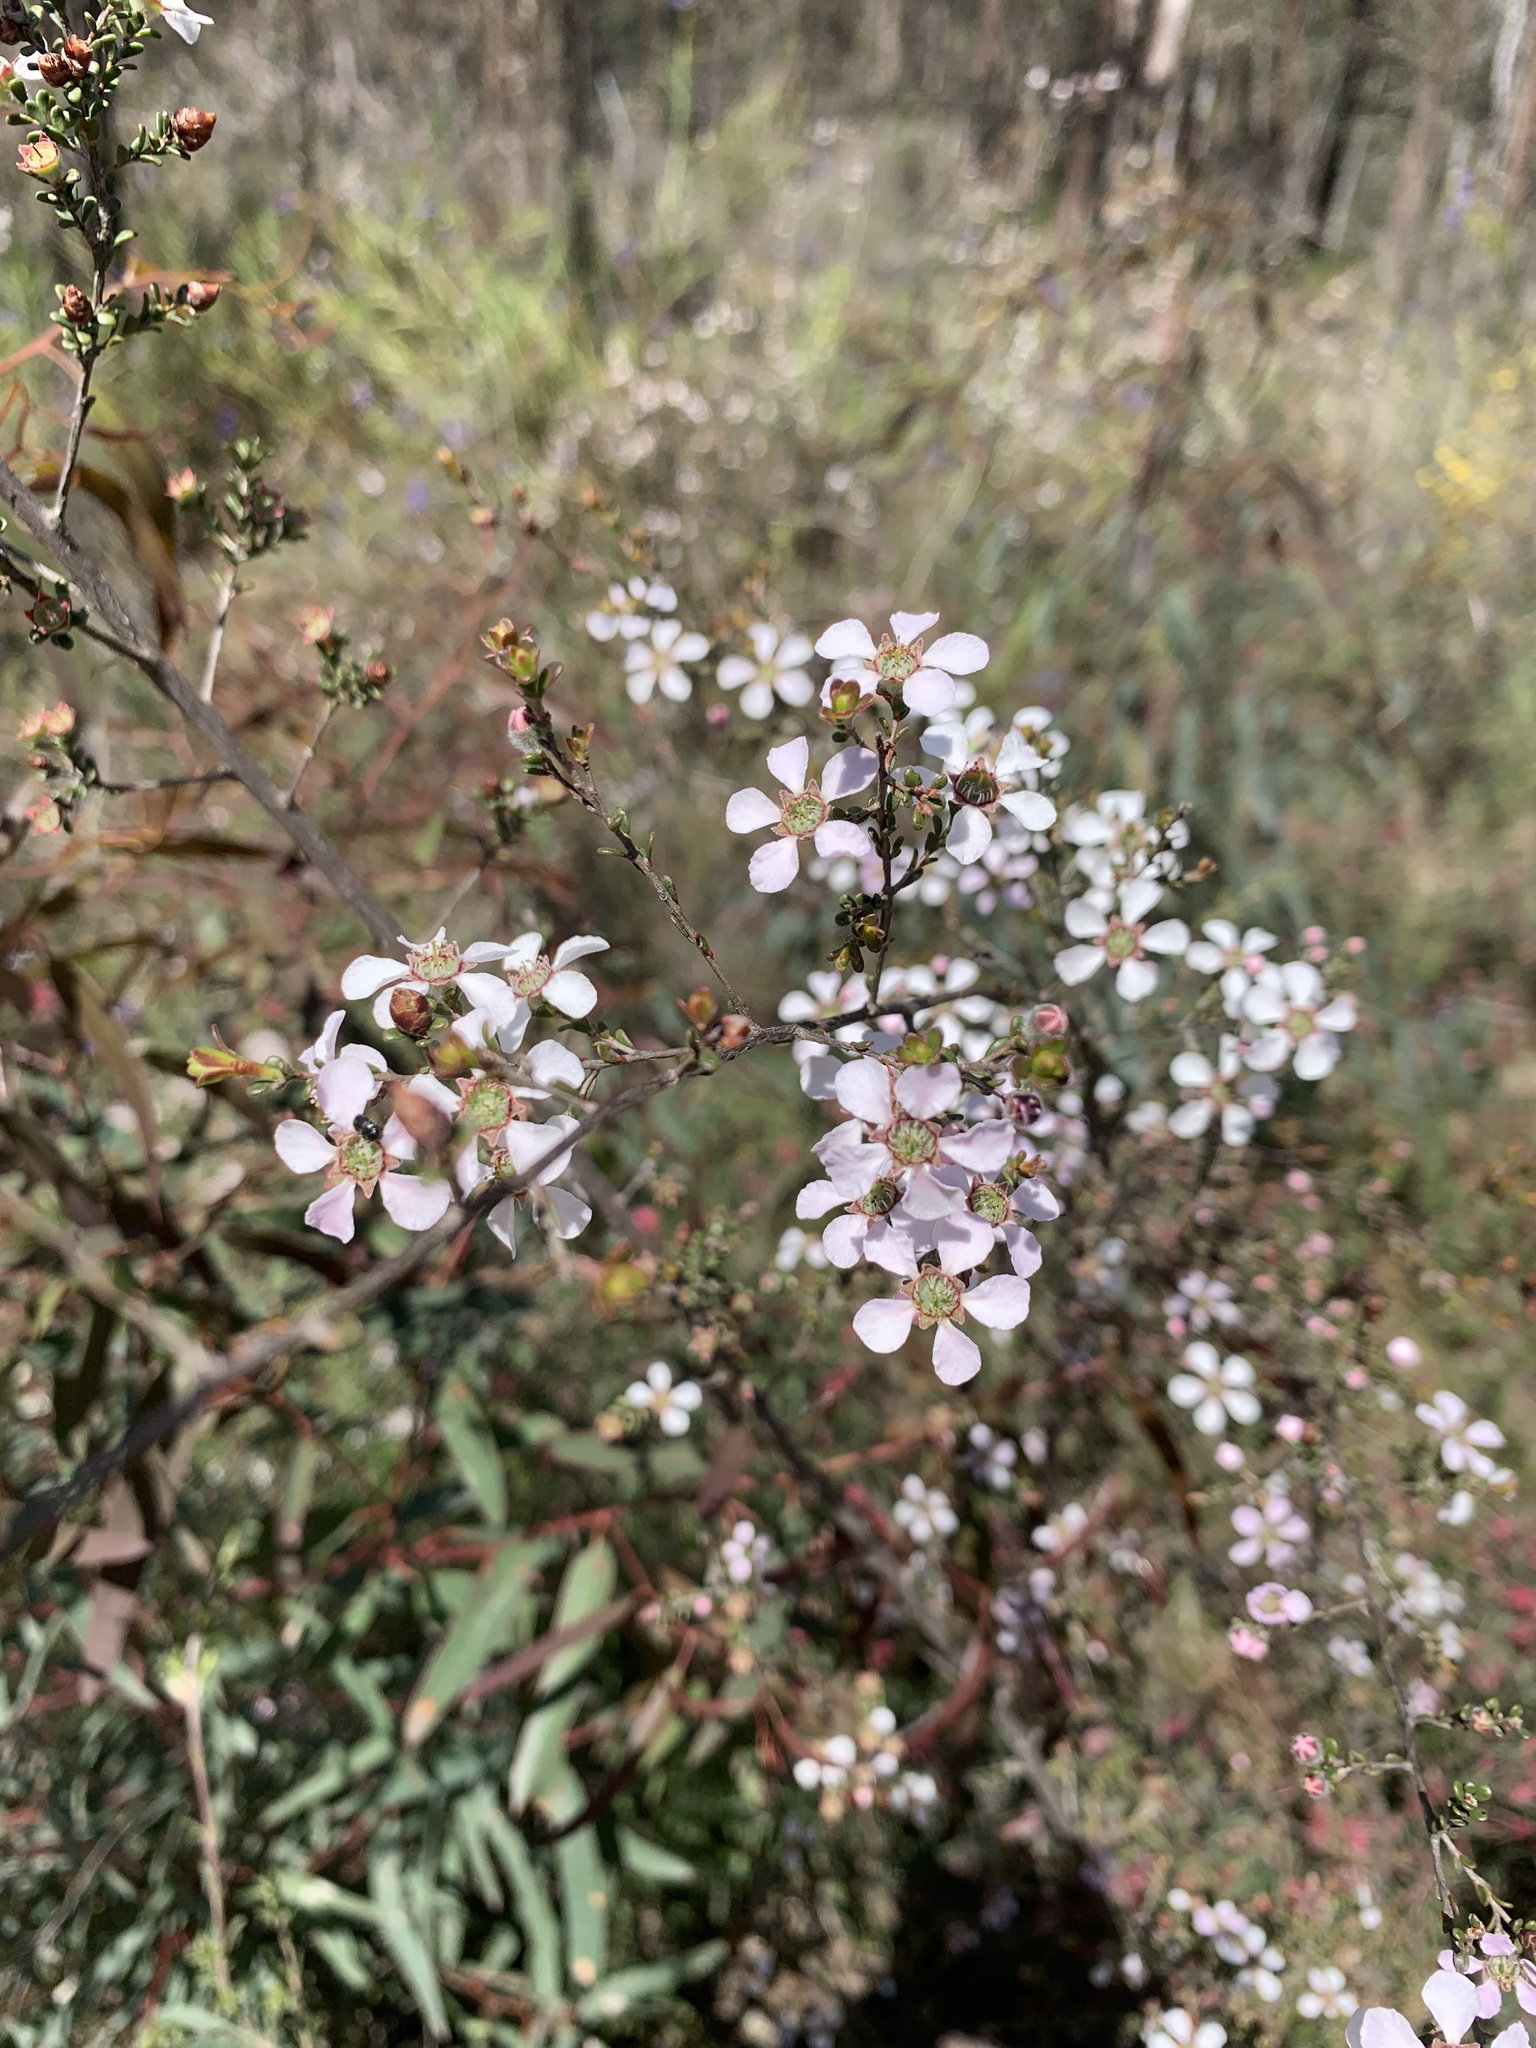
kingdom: Plantae
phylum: Tracheophyta
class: Magnoliopsida
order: Myrtales
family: Myrtaceae
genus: Leptospermum
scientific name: Leptospermum parvifolium
